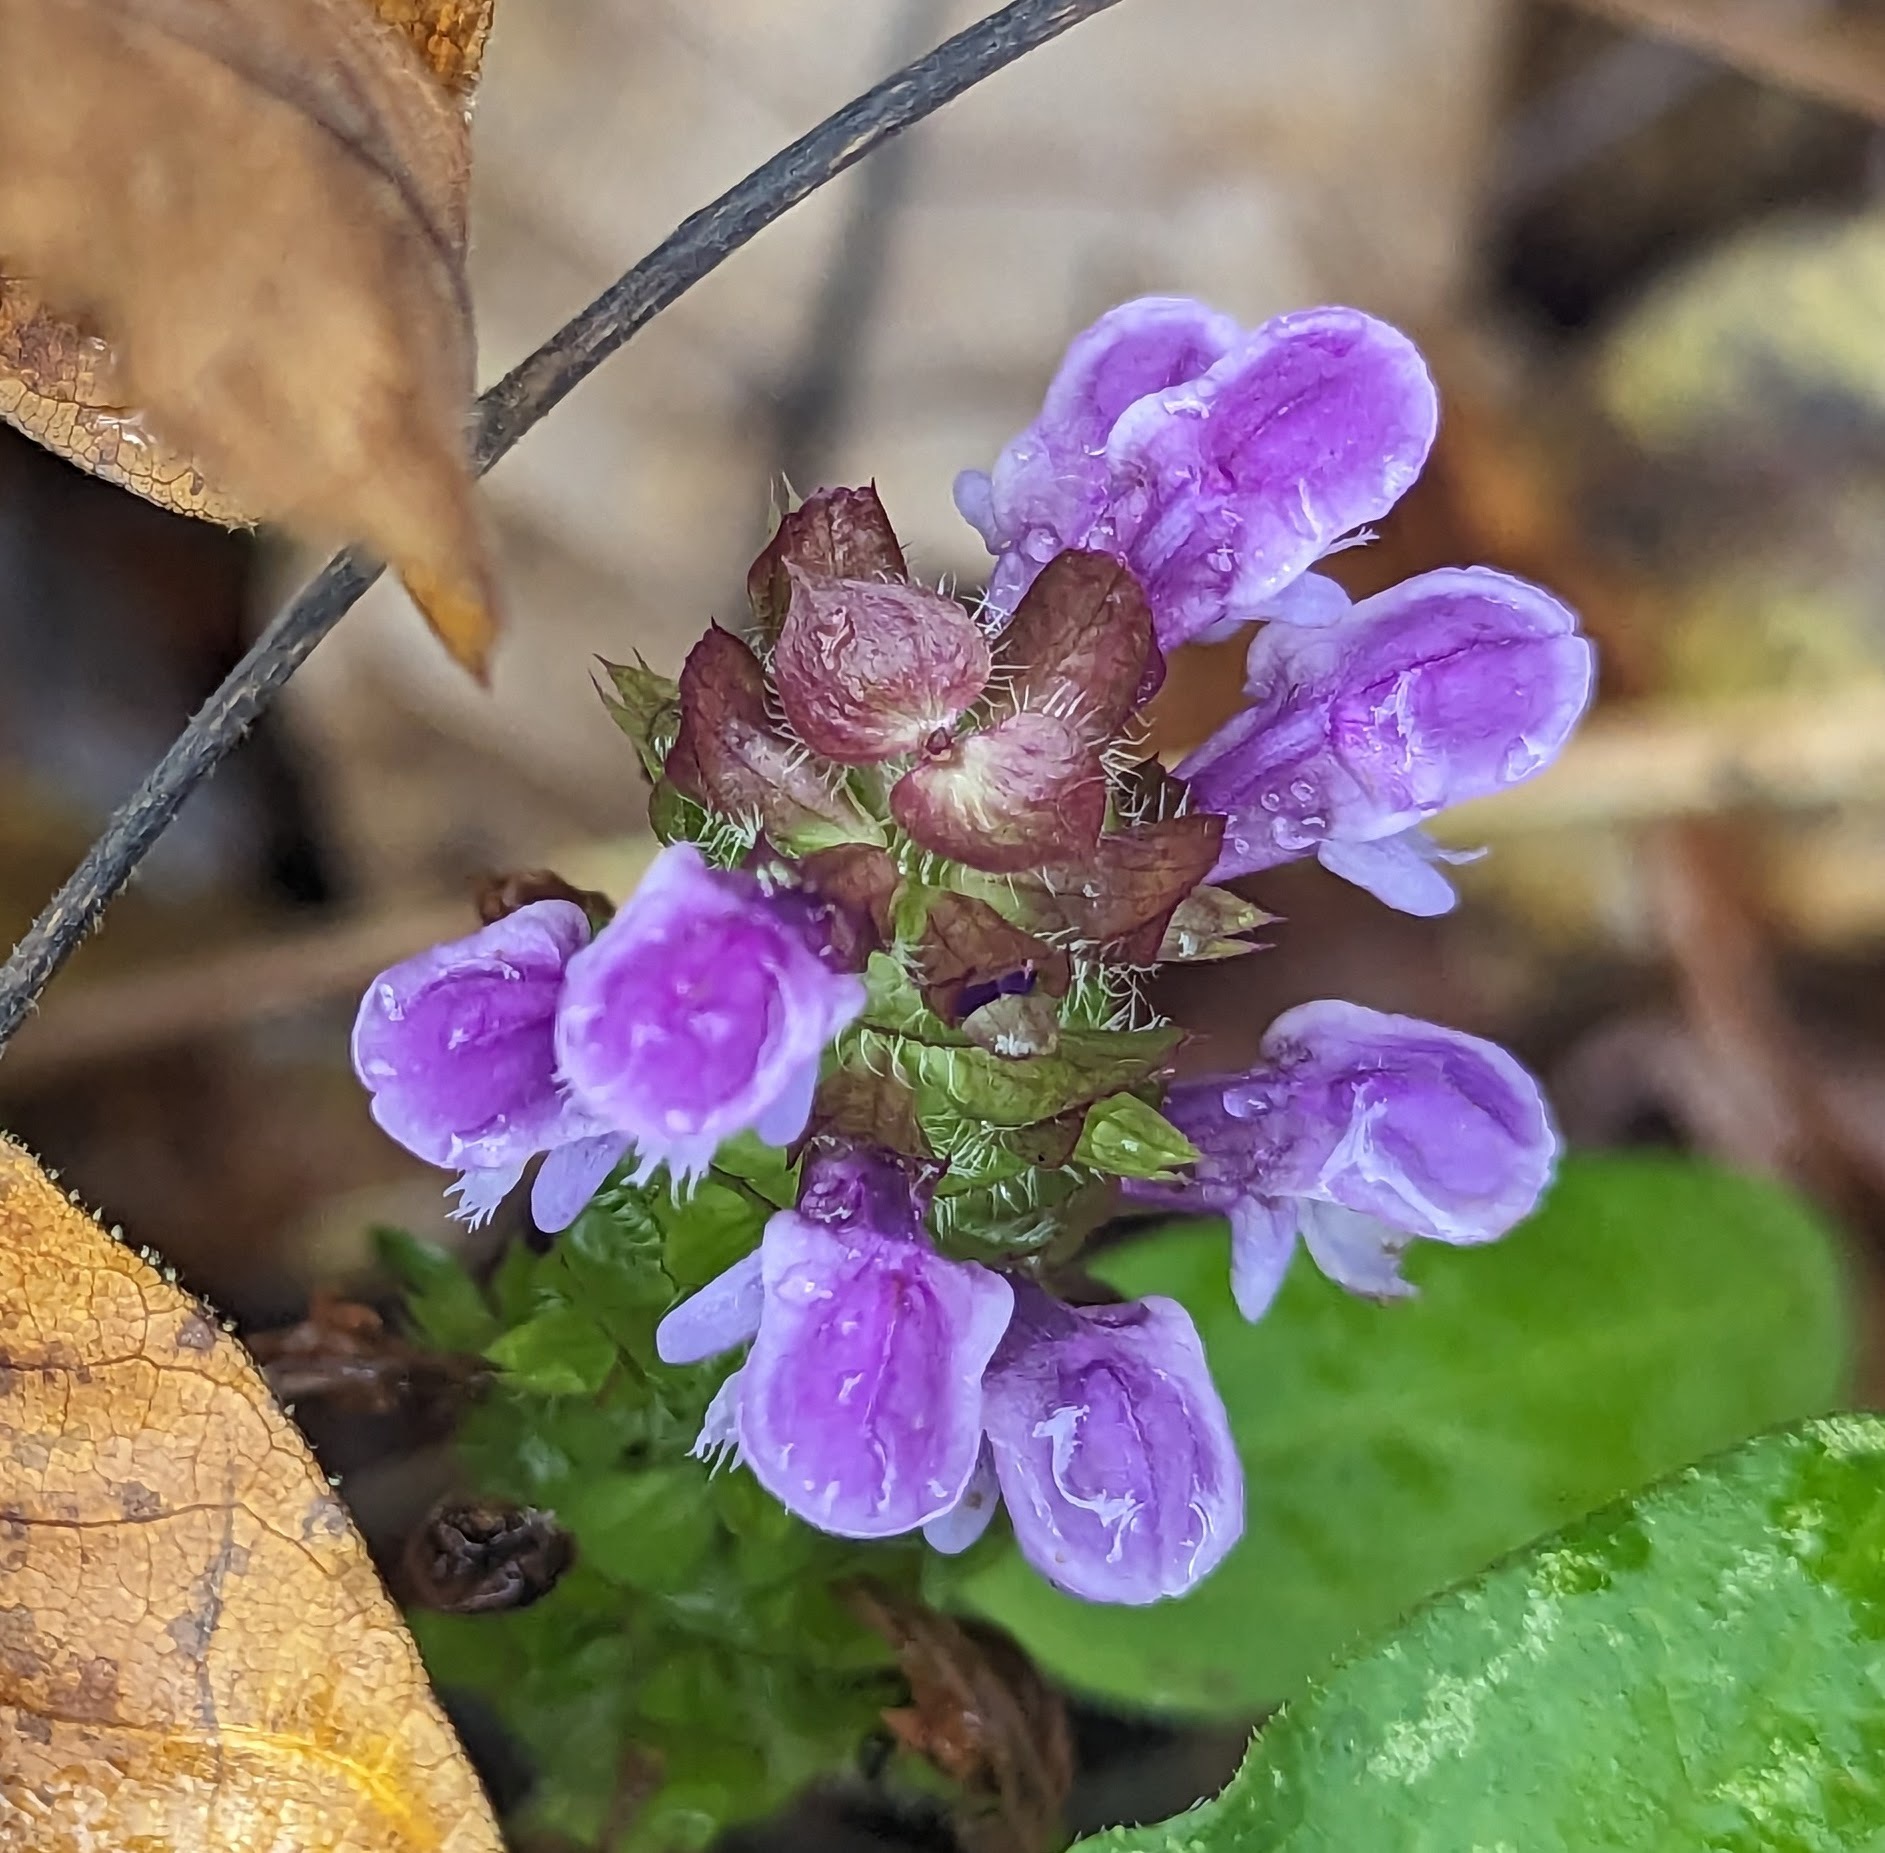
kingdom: Plantae
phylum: Tracheophyta
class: Magnoliopsida
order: Lamiales
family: Lamiaceae
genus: Prunella
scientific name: Prunella vulgaris
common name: Heal-all
